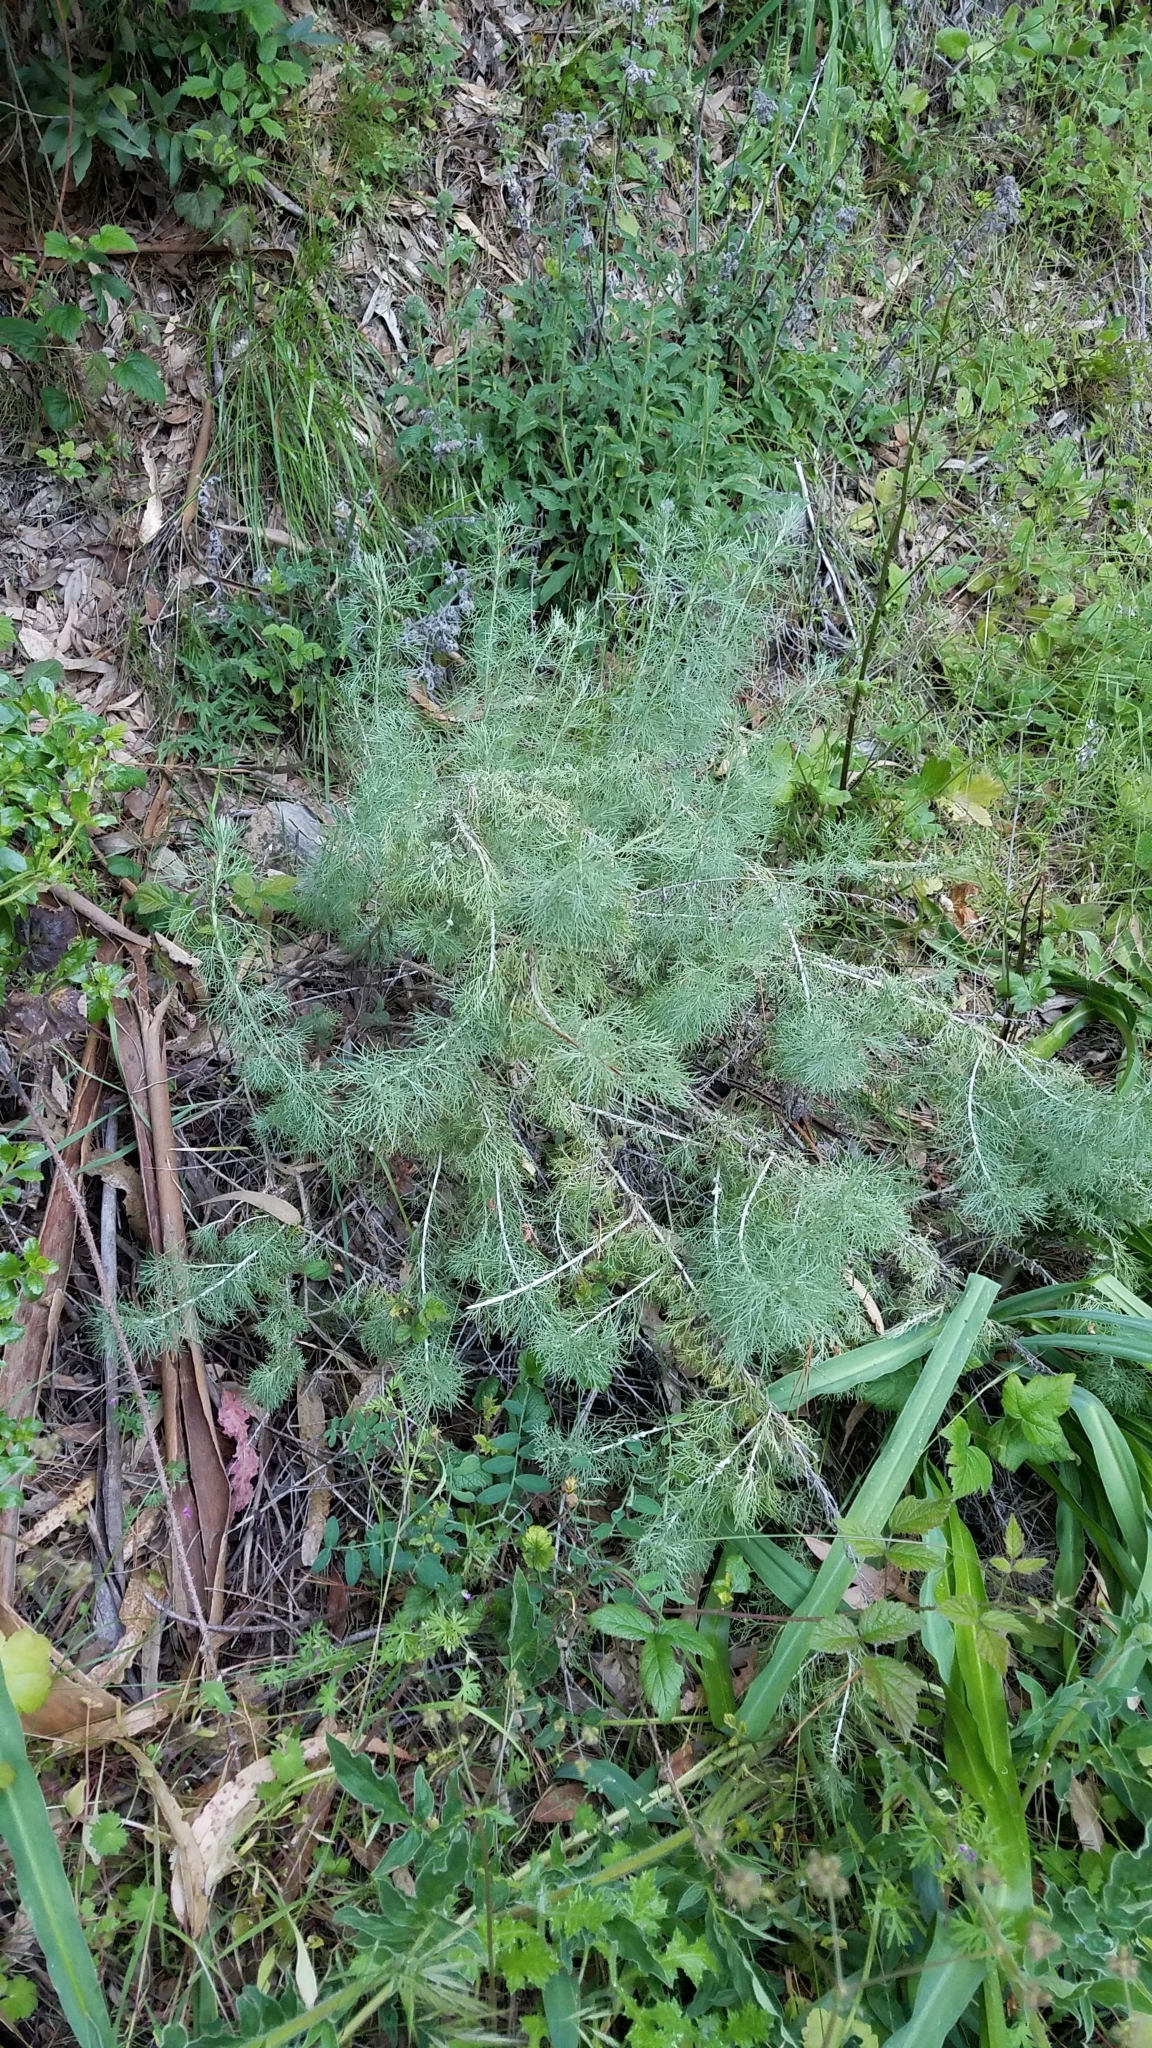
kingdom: Plantae
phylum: Tracheophyta
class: Magnoliopsida
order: Asterales
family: Asteraceae
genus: Artemisia
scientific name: Artemisia californica
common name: California sagebrush
